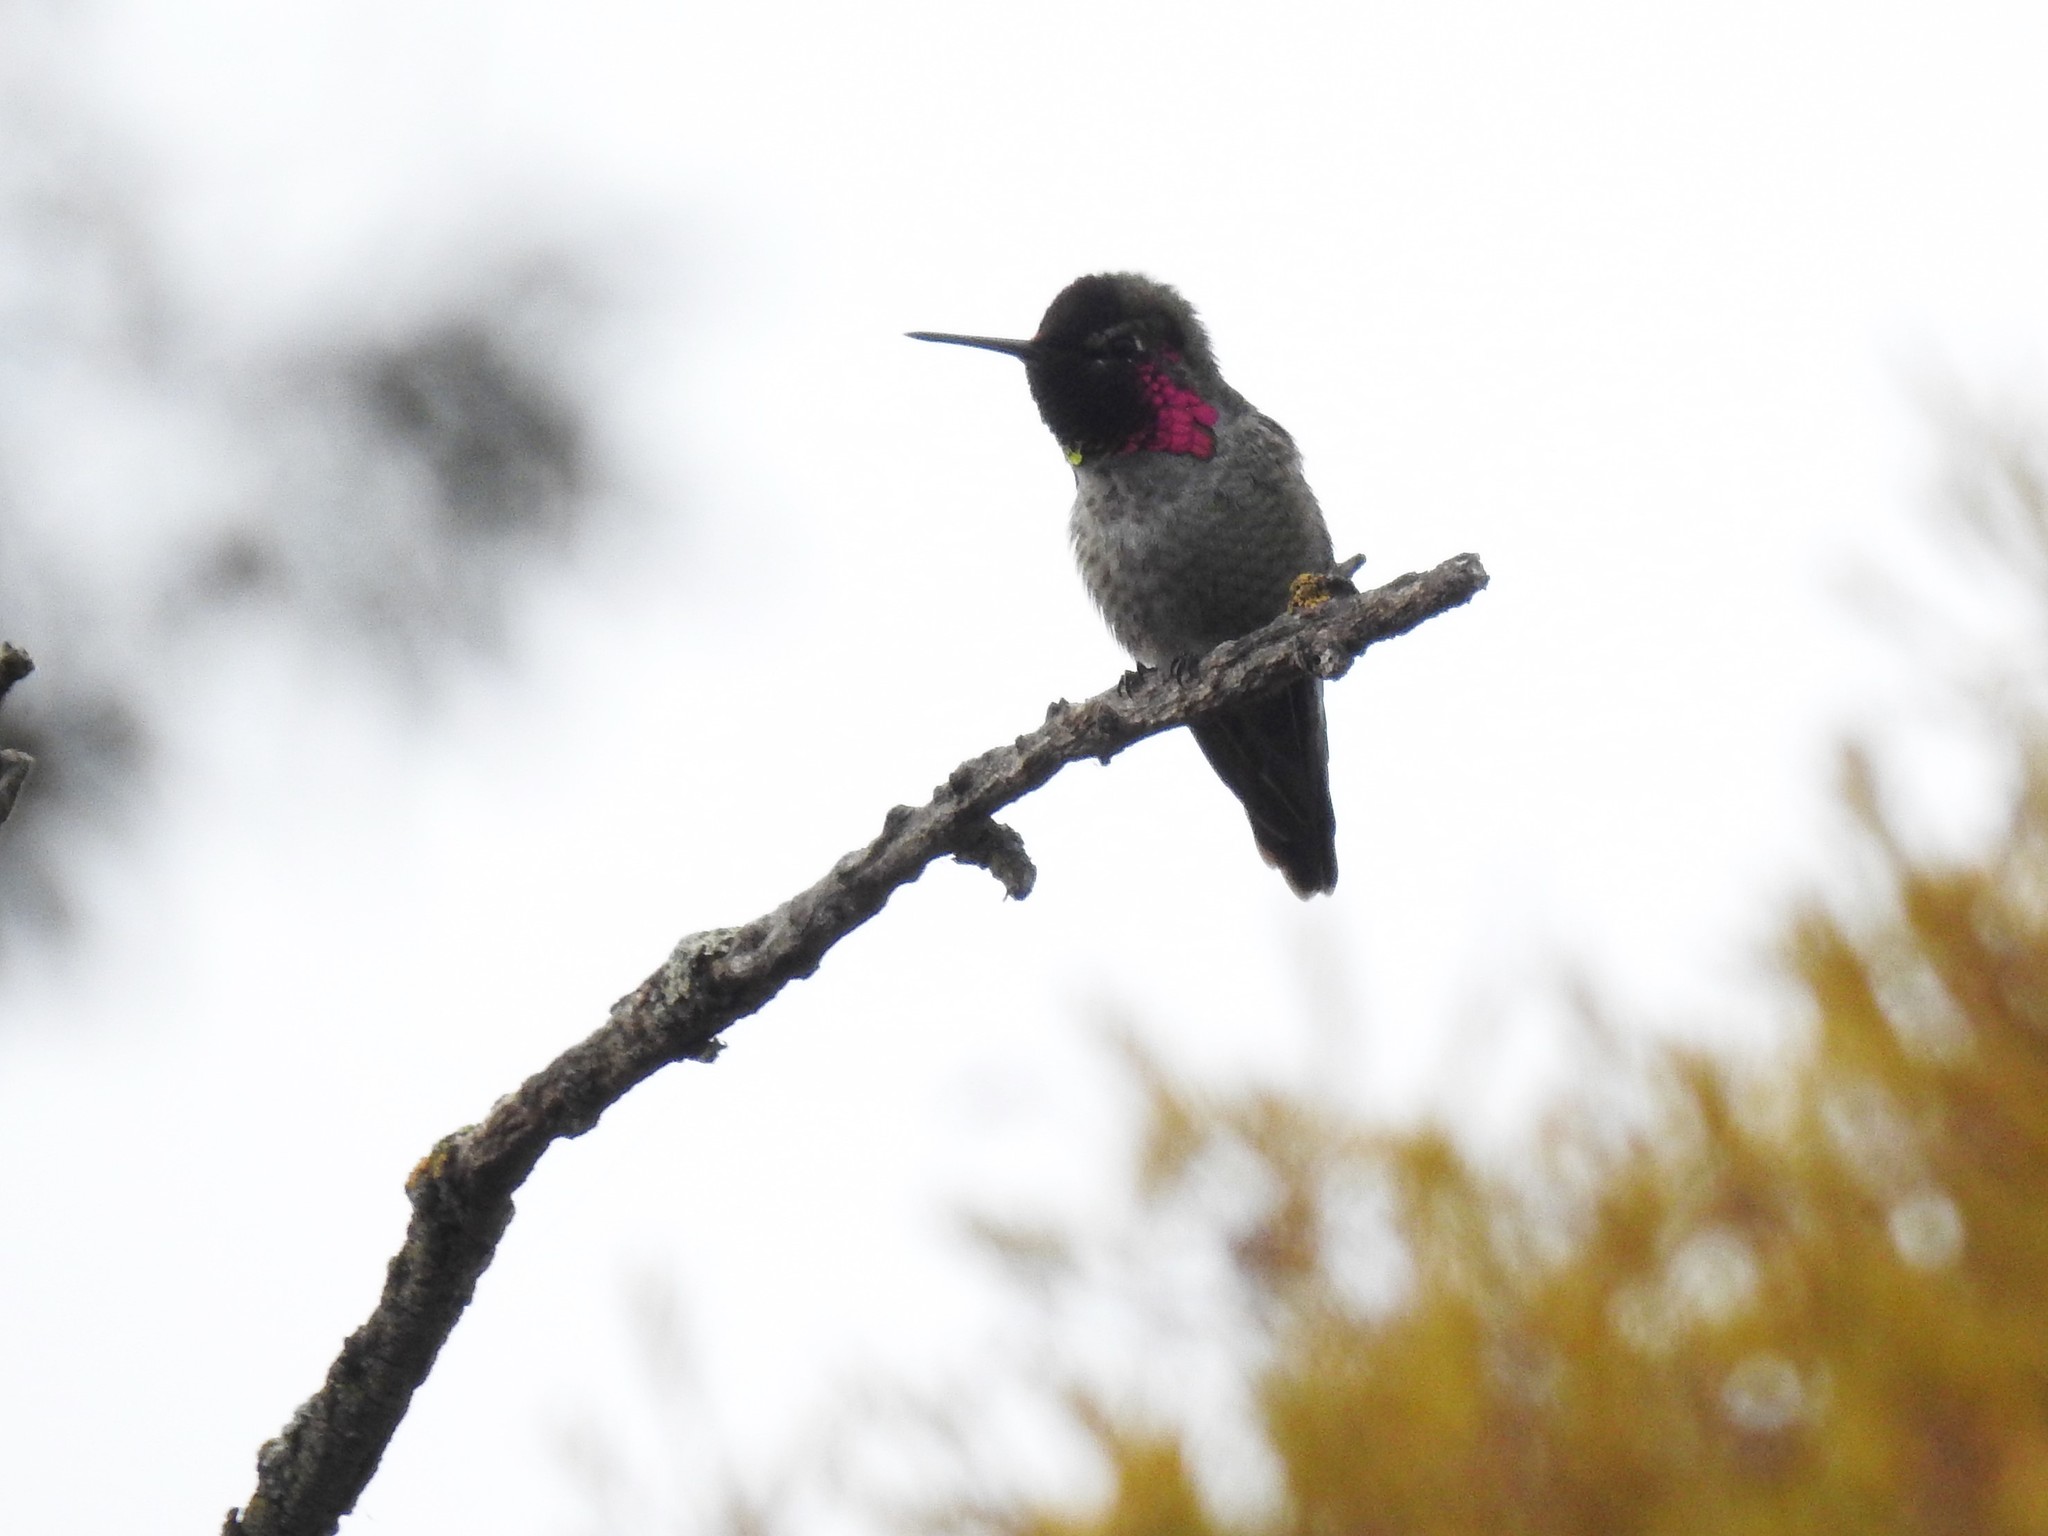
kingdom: Animalia
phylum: Chordata
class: Aves
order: Apodiformes
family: Trochilidae
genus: Calypte
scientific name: Calypte anna
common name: Anna's hummingbird
